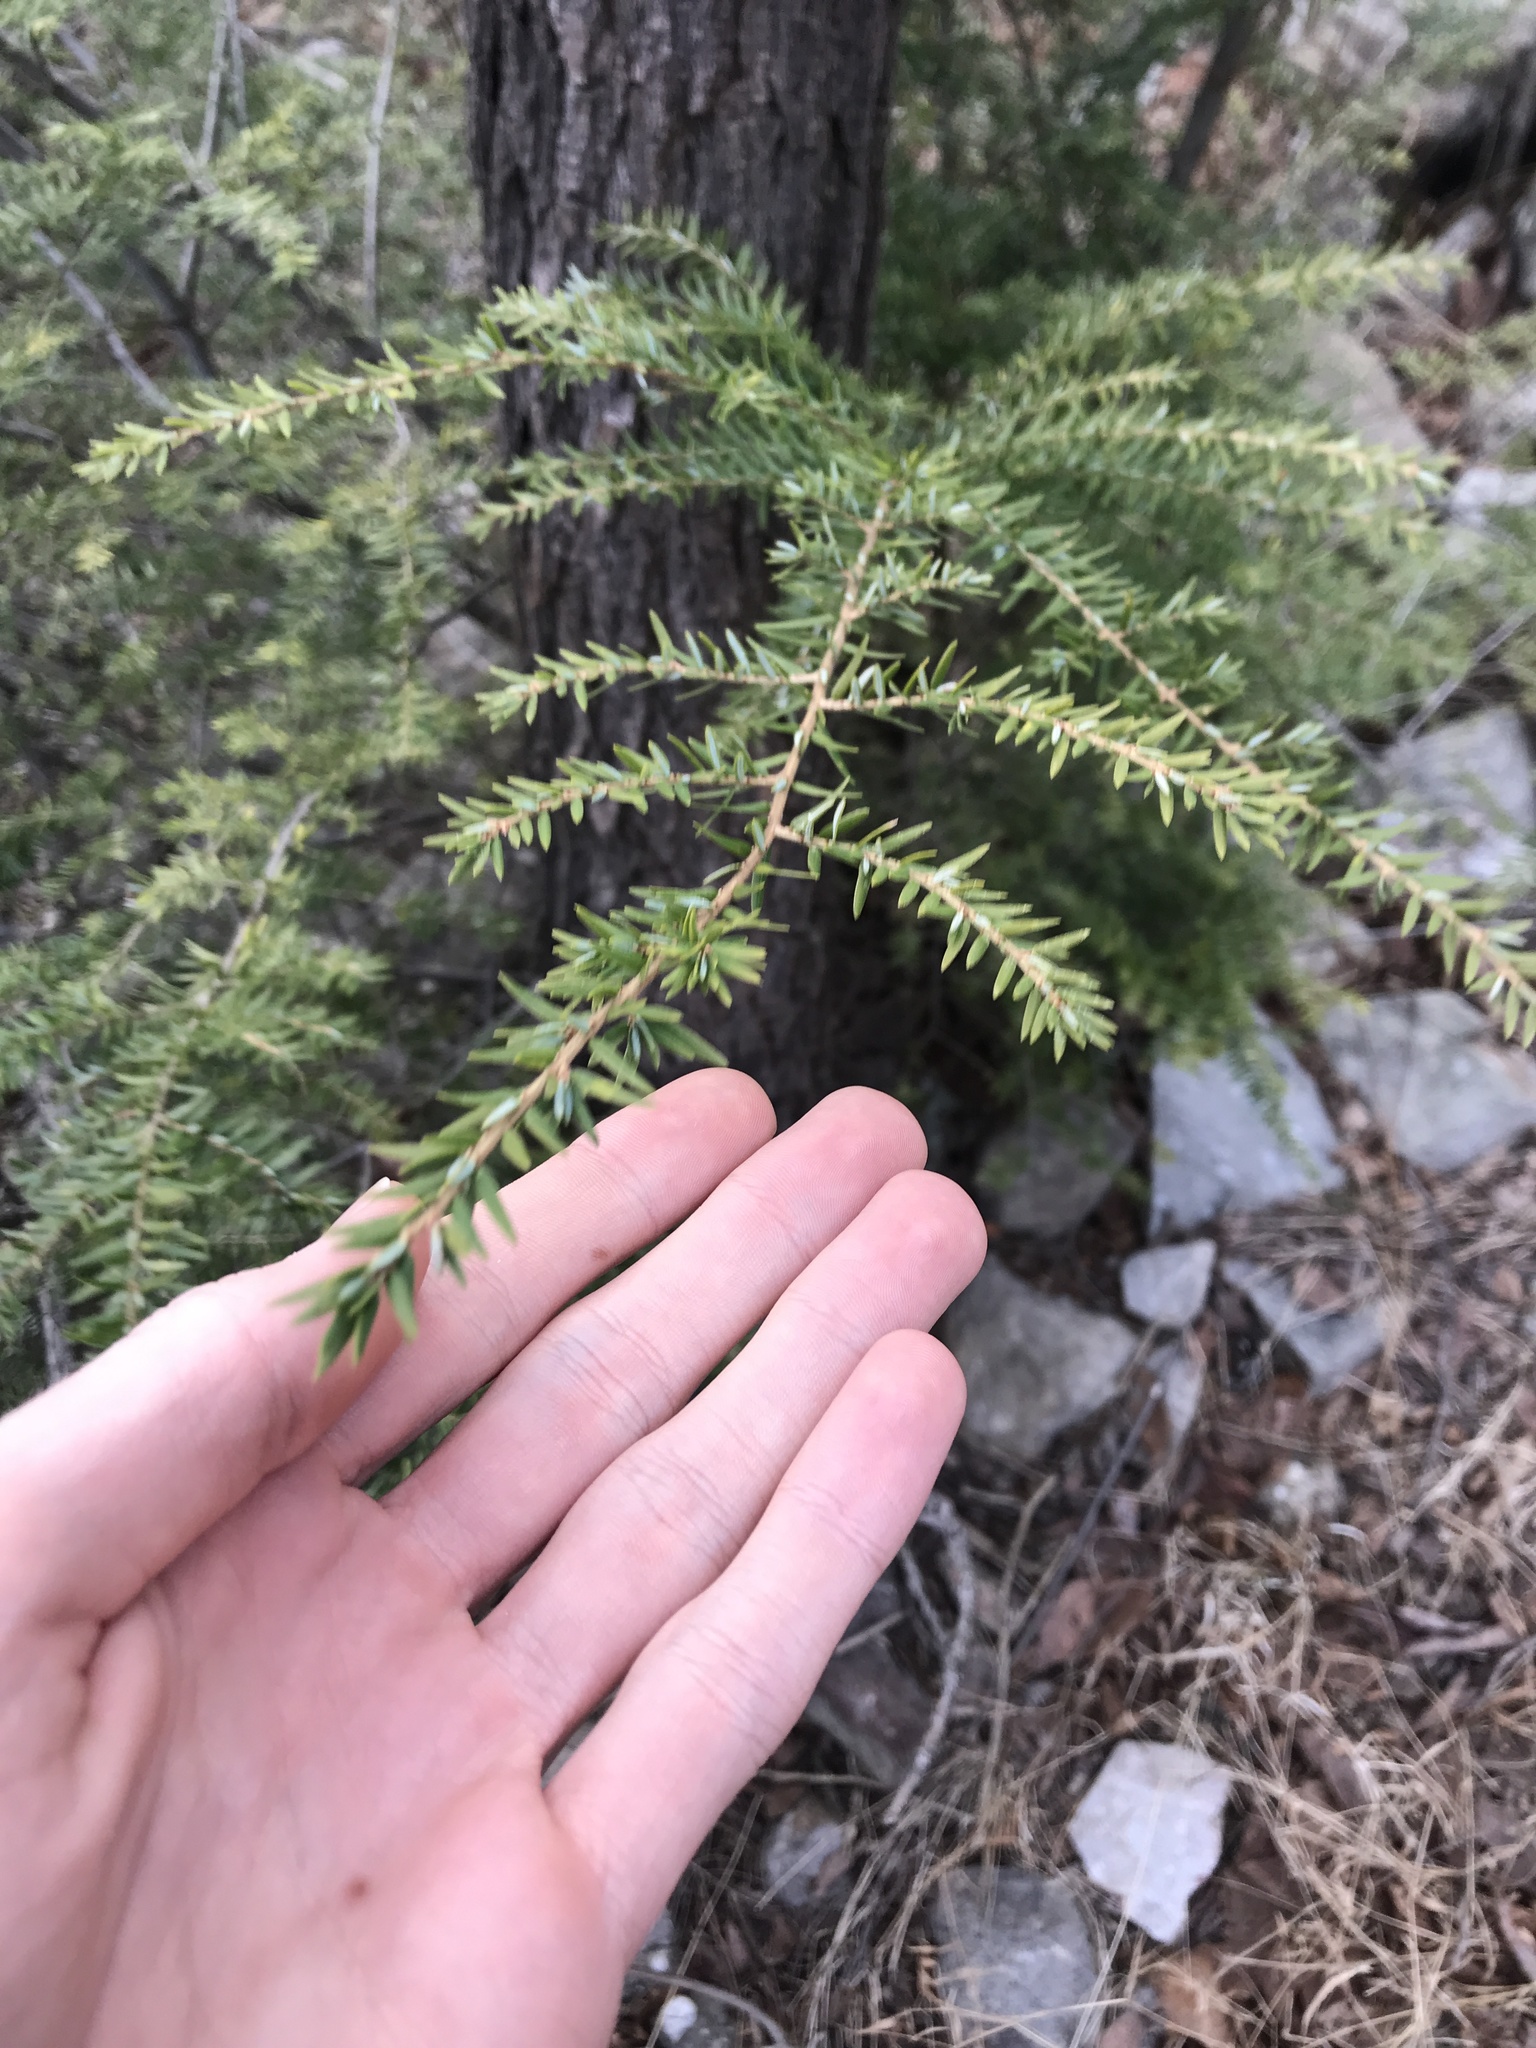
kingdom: Plantae
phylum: Tracheophyta
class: Pinopsida
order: Pinales
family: Pinaceae
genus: Tsuga
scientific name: Tsuga canadensis
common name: Eastern hemlock
